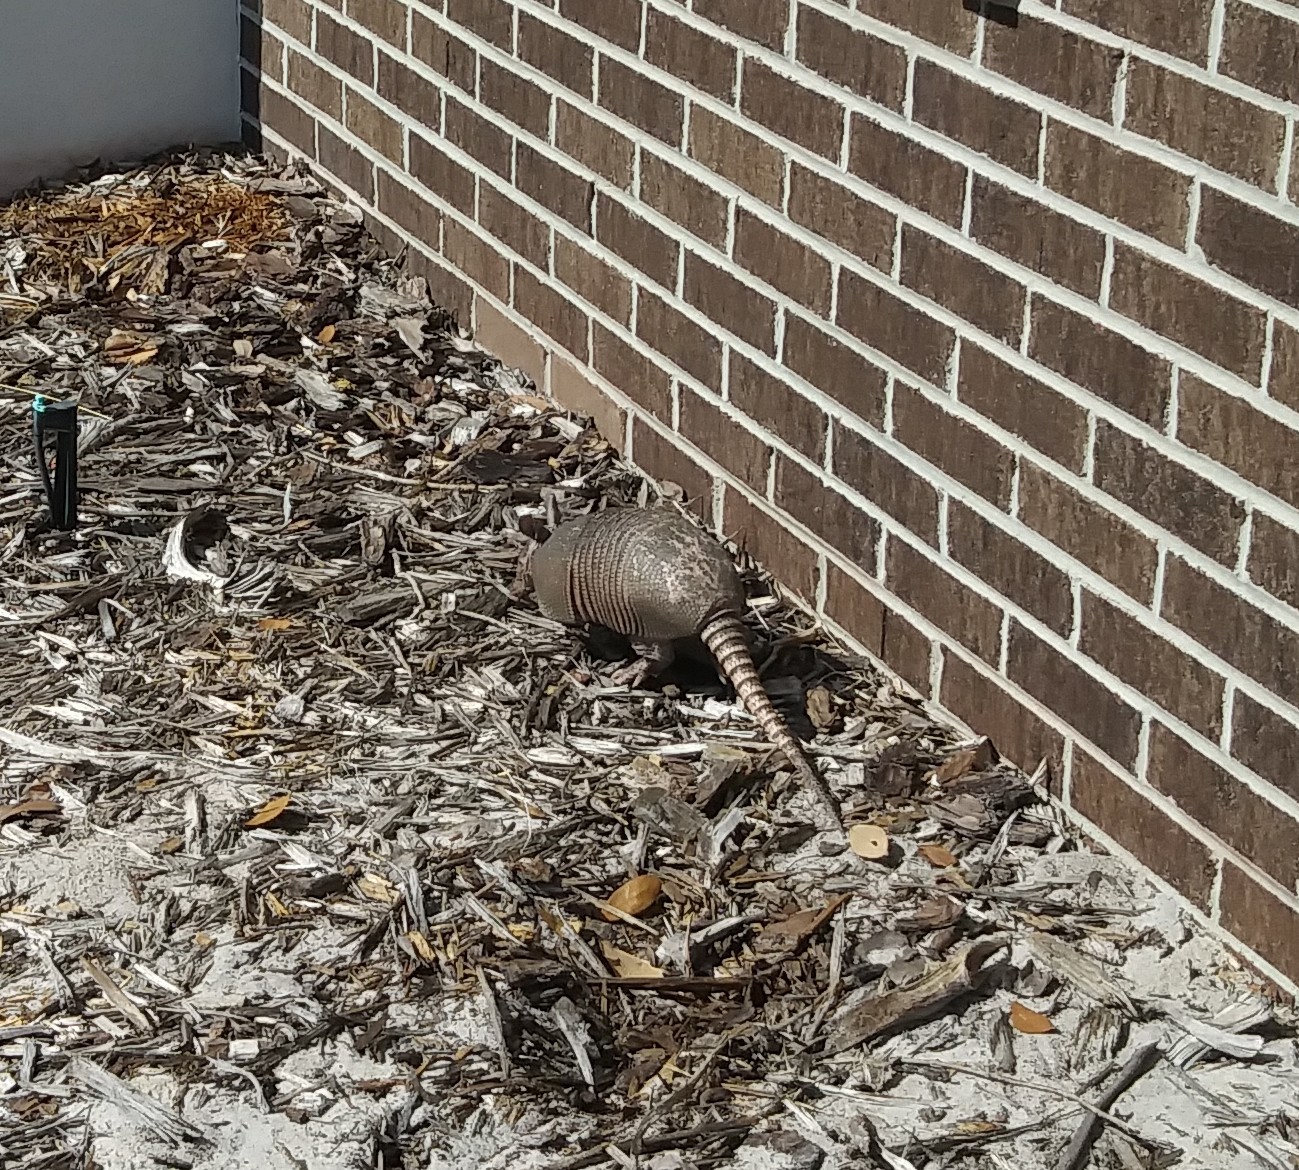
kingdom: Animalia
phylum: Chordata
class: Mammalia
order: Cingulata
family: Dasypodidae
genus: Dasypus
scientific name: Dasypus novemcinctus
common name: Nine-banded armadillo
